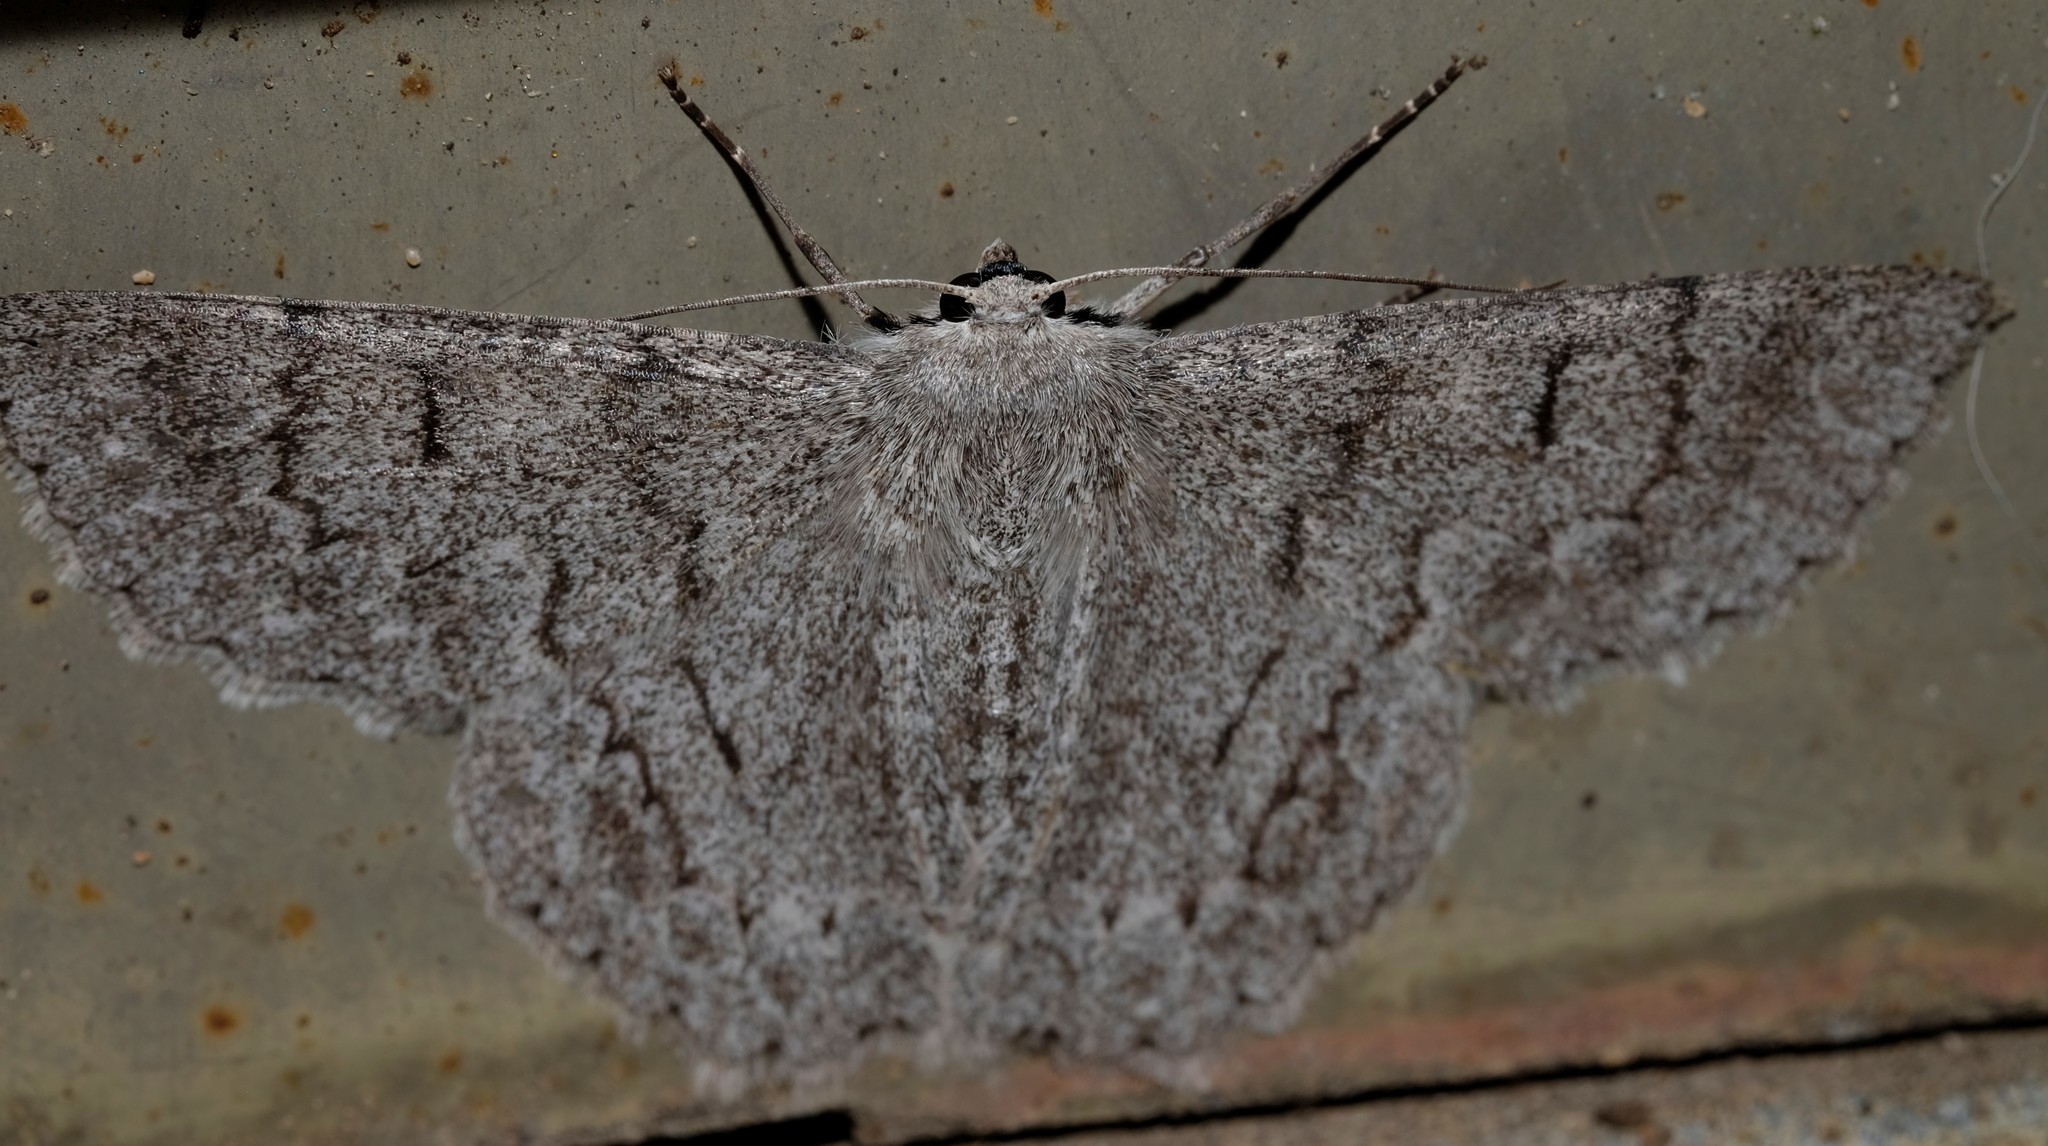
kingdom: Animalia
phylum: Arthropoda
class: Insecta
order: Lepidoptera
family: Geometridae
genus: Crypsiphona
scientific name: Crypsiphona ocultaria
